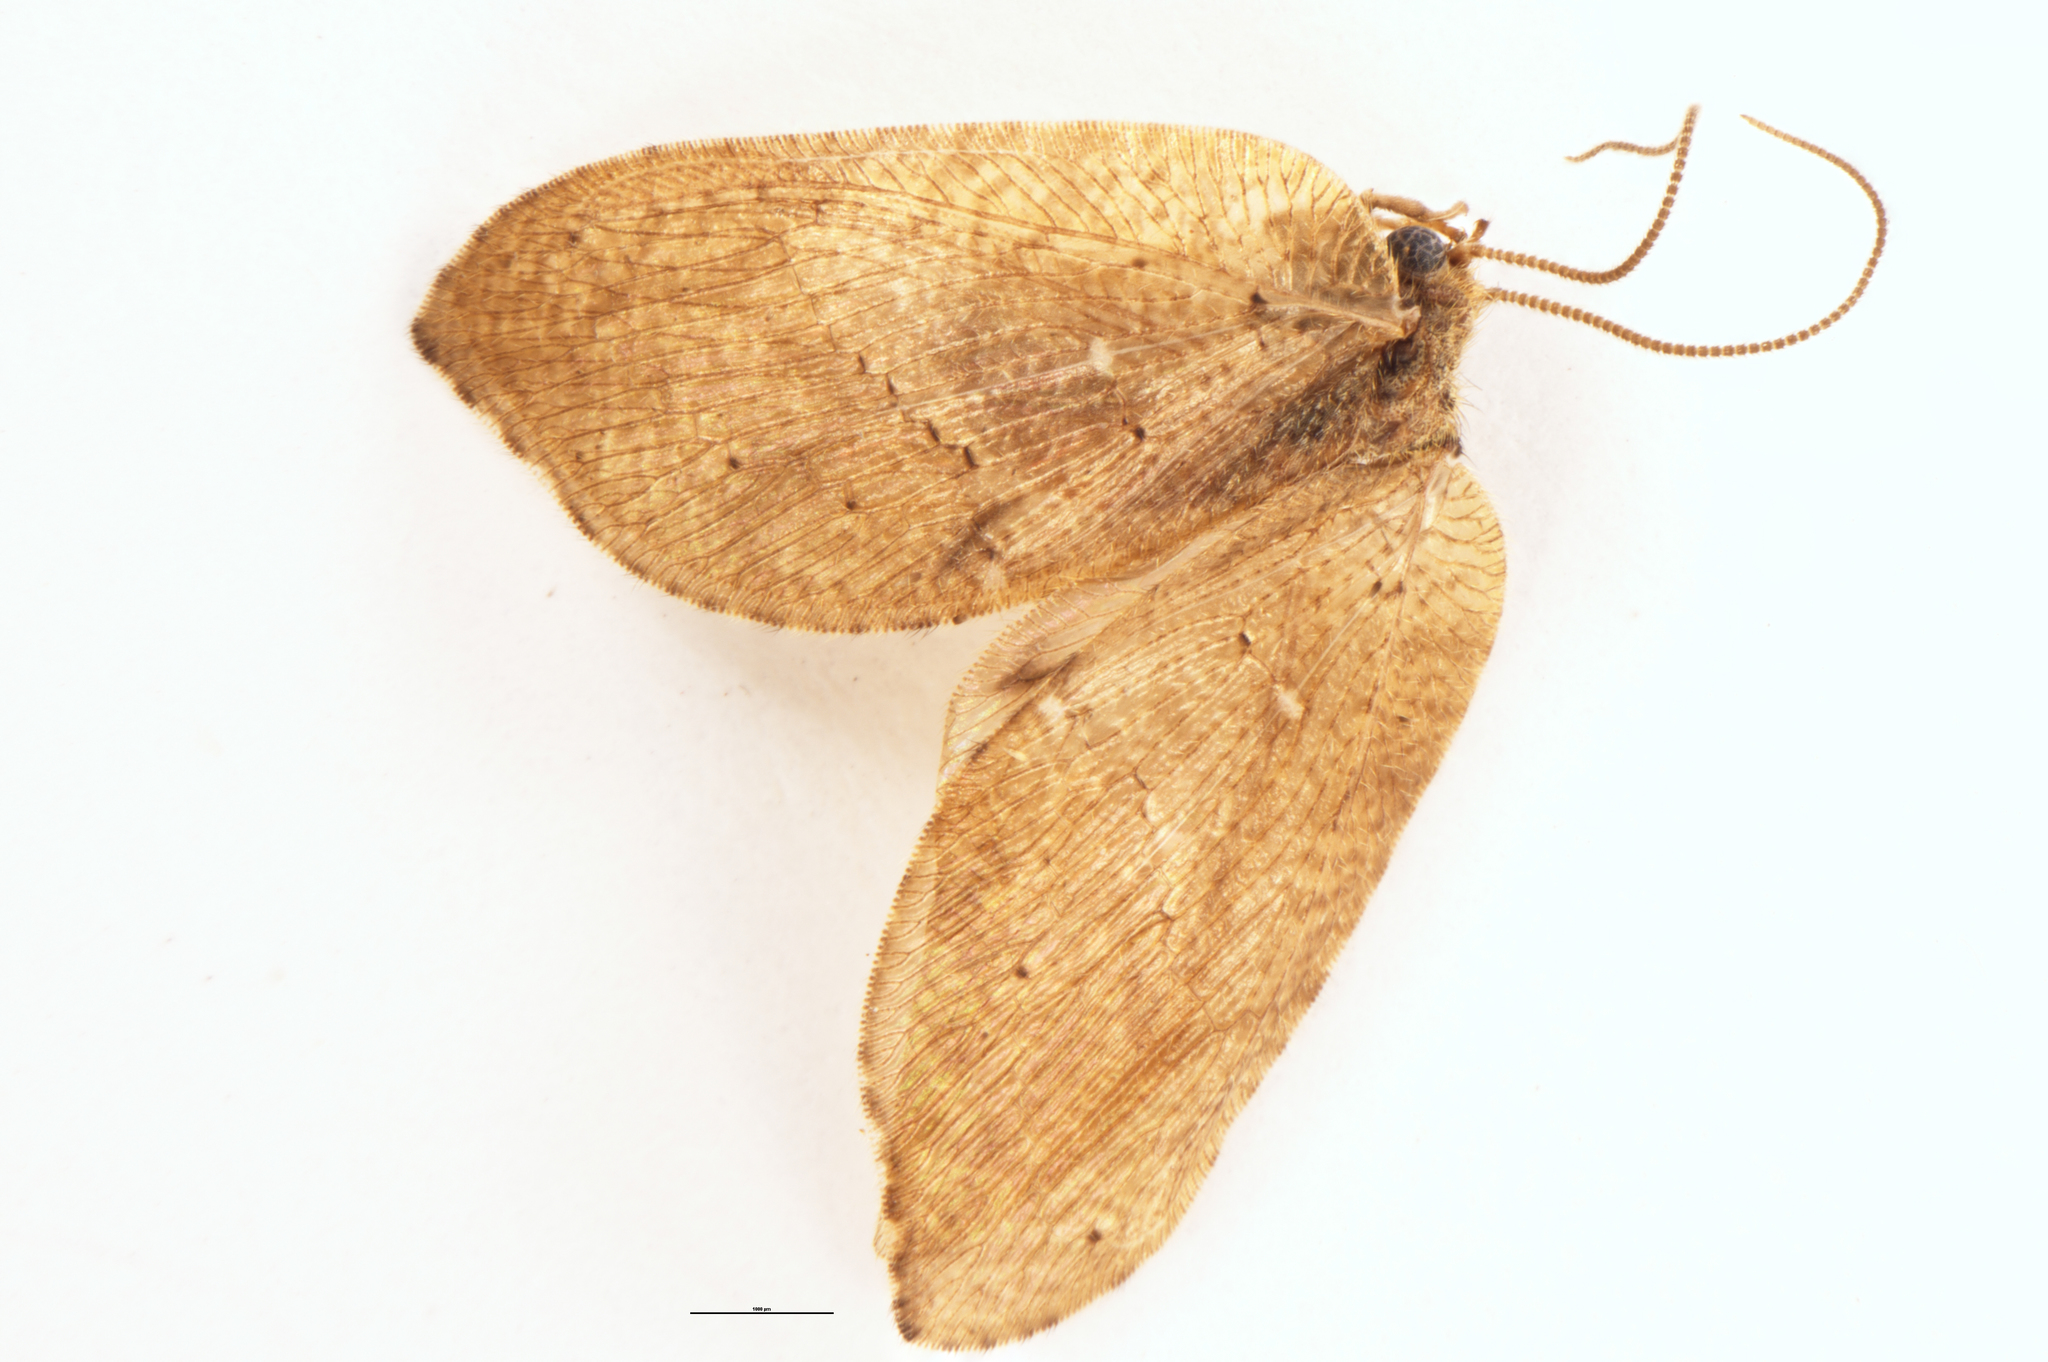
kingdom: Animalia
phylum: Arthropoda
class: Insecta
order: Neuroptera
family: Hemerobiidae
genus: Drepanacra
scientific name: Drepanacra binocula
